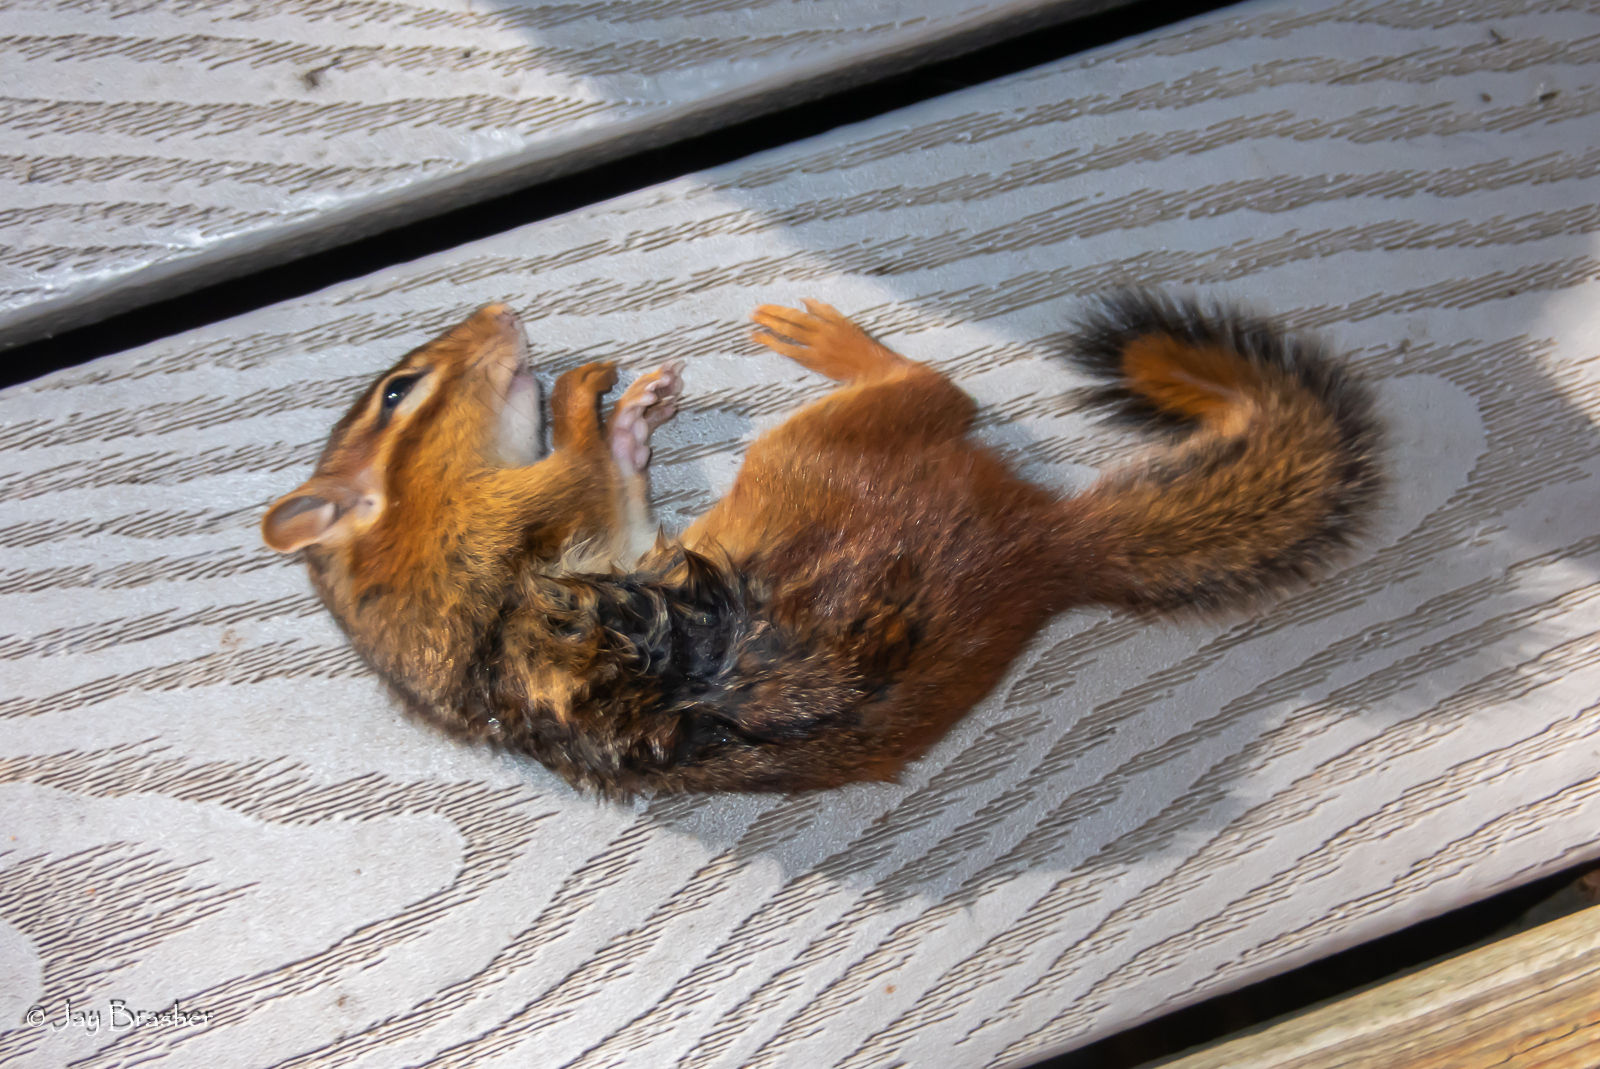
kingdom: Animalia
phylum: Chordata
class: Mammalia
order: Rodentia
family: Sciuridae
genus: Tamias
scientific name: Tamias striatus
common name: Eastern chipmunk
